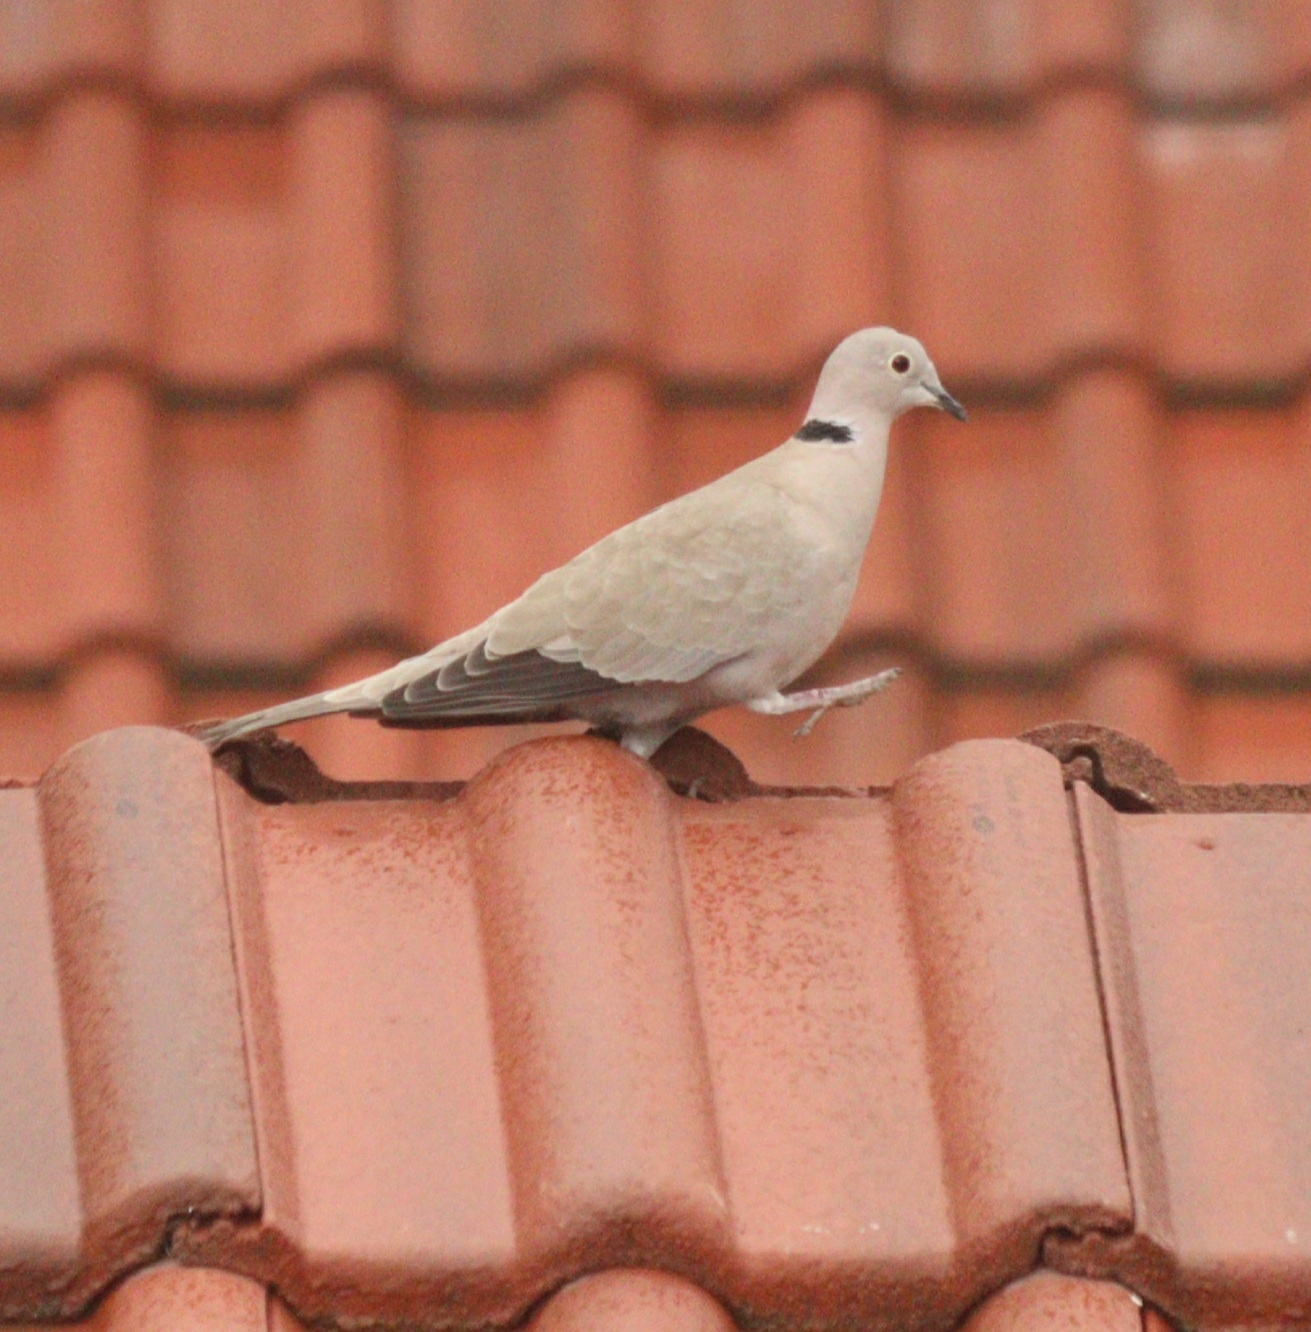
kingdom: Animalia
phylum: Chordata
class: Aves
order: Columbiformes
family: Columbidae
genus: Streptopelia
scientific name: Streptopelia decaocto
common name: Eurasian collared dove
